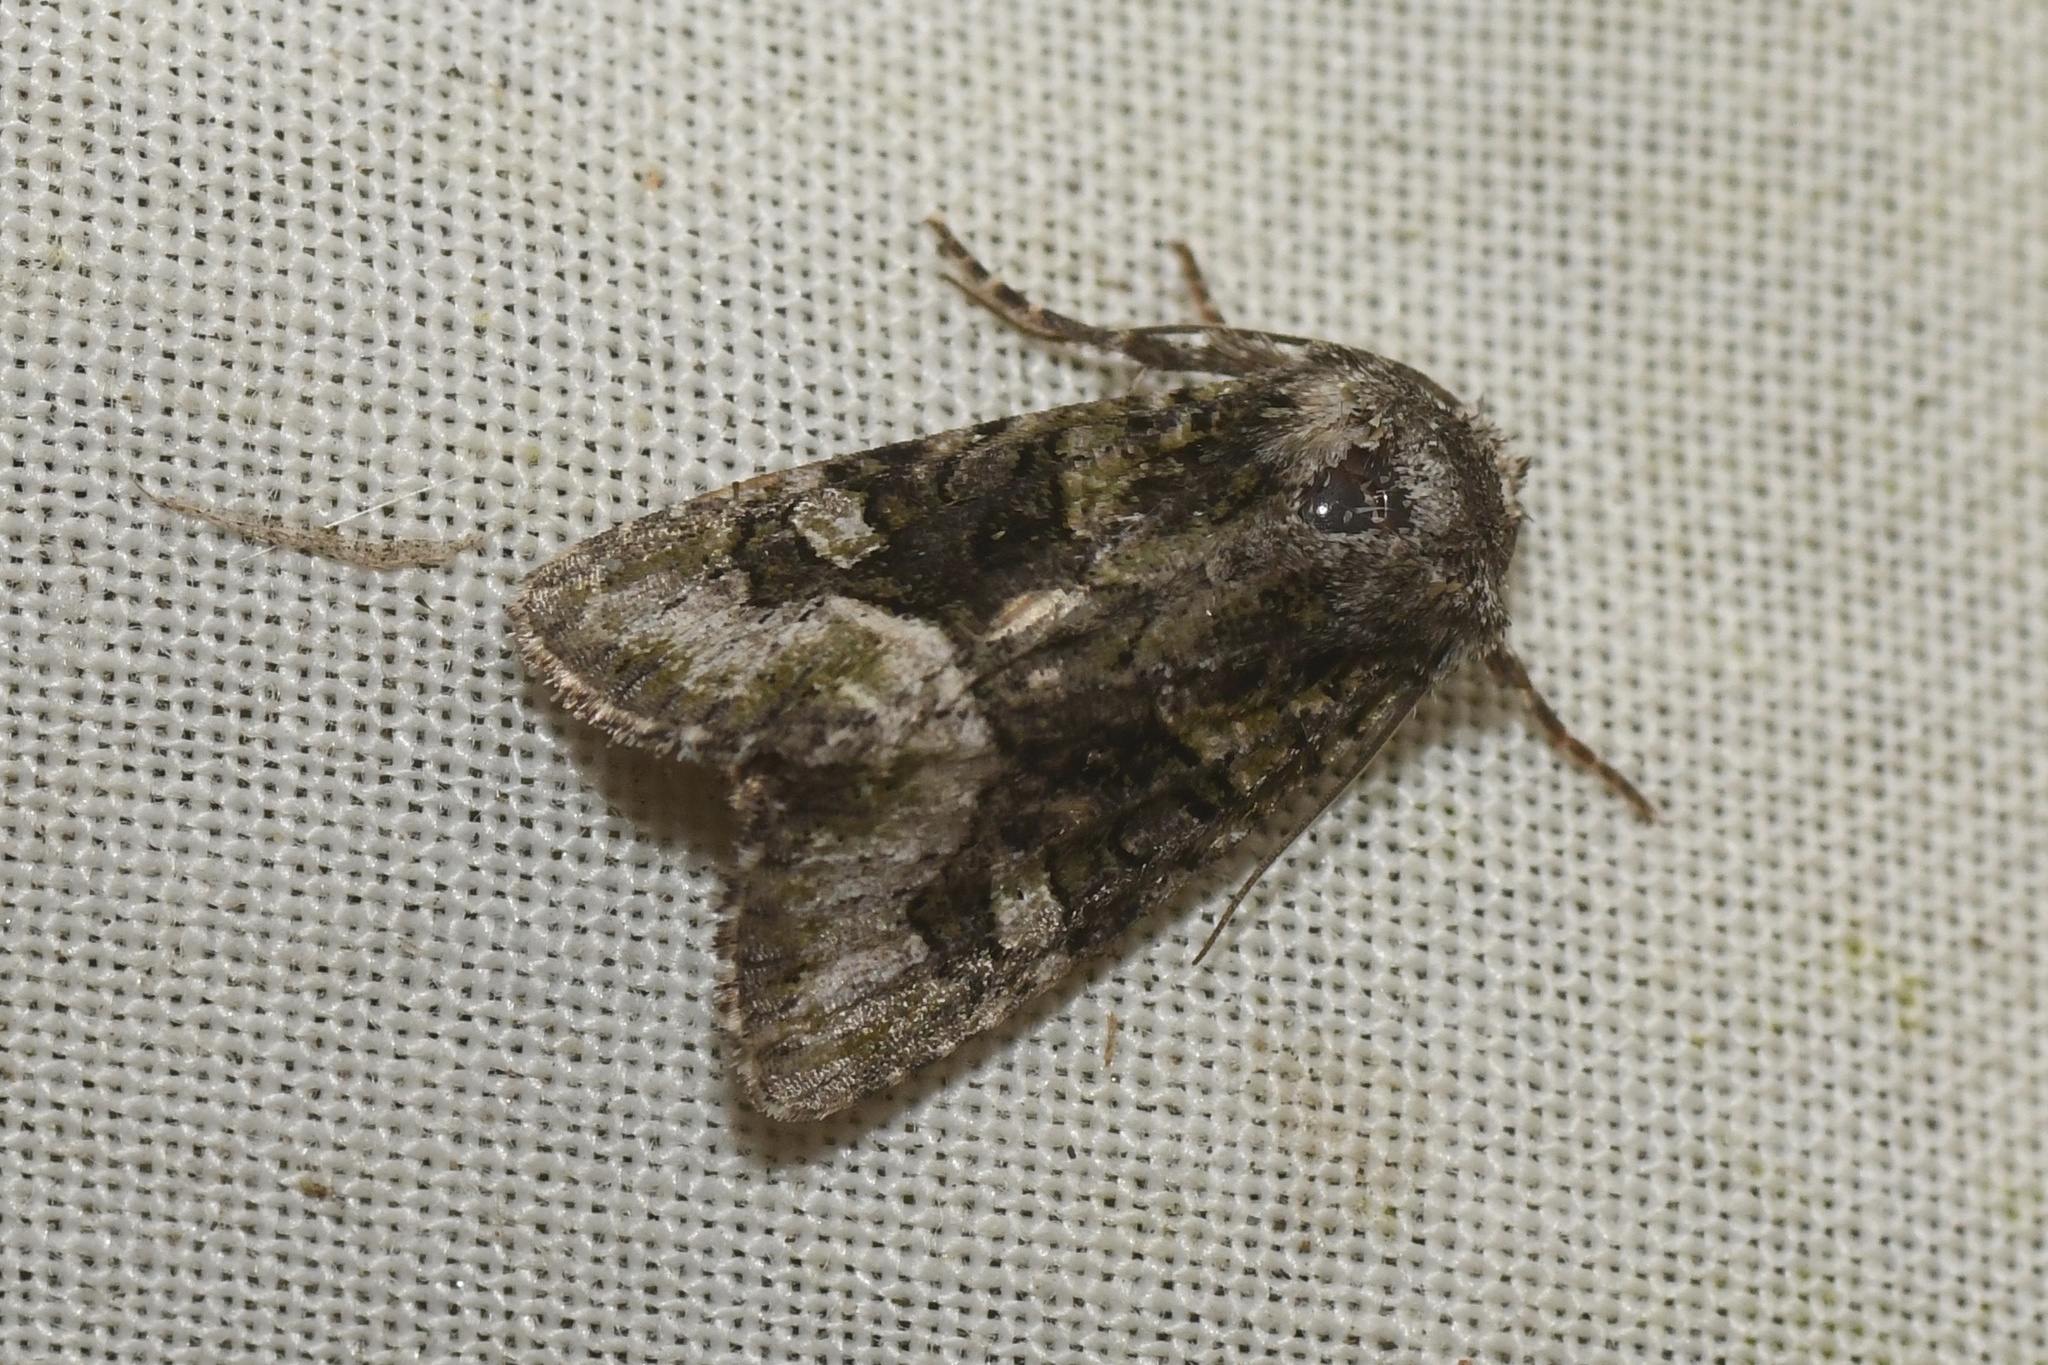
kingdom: Animalia
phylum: Arthropoda
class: Insecta
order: Lepidoptera
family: Noctuidae
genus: Lacinipolia
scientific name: Lacinipolia olivacea
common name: Olive arches moth
